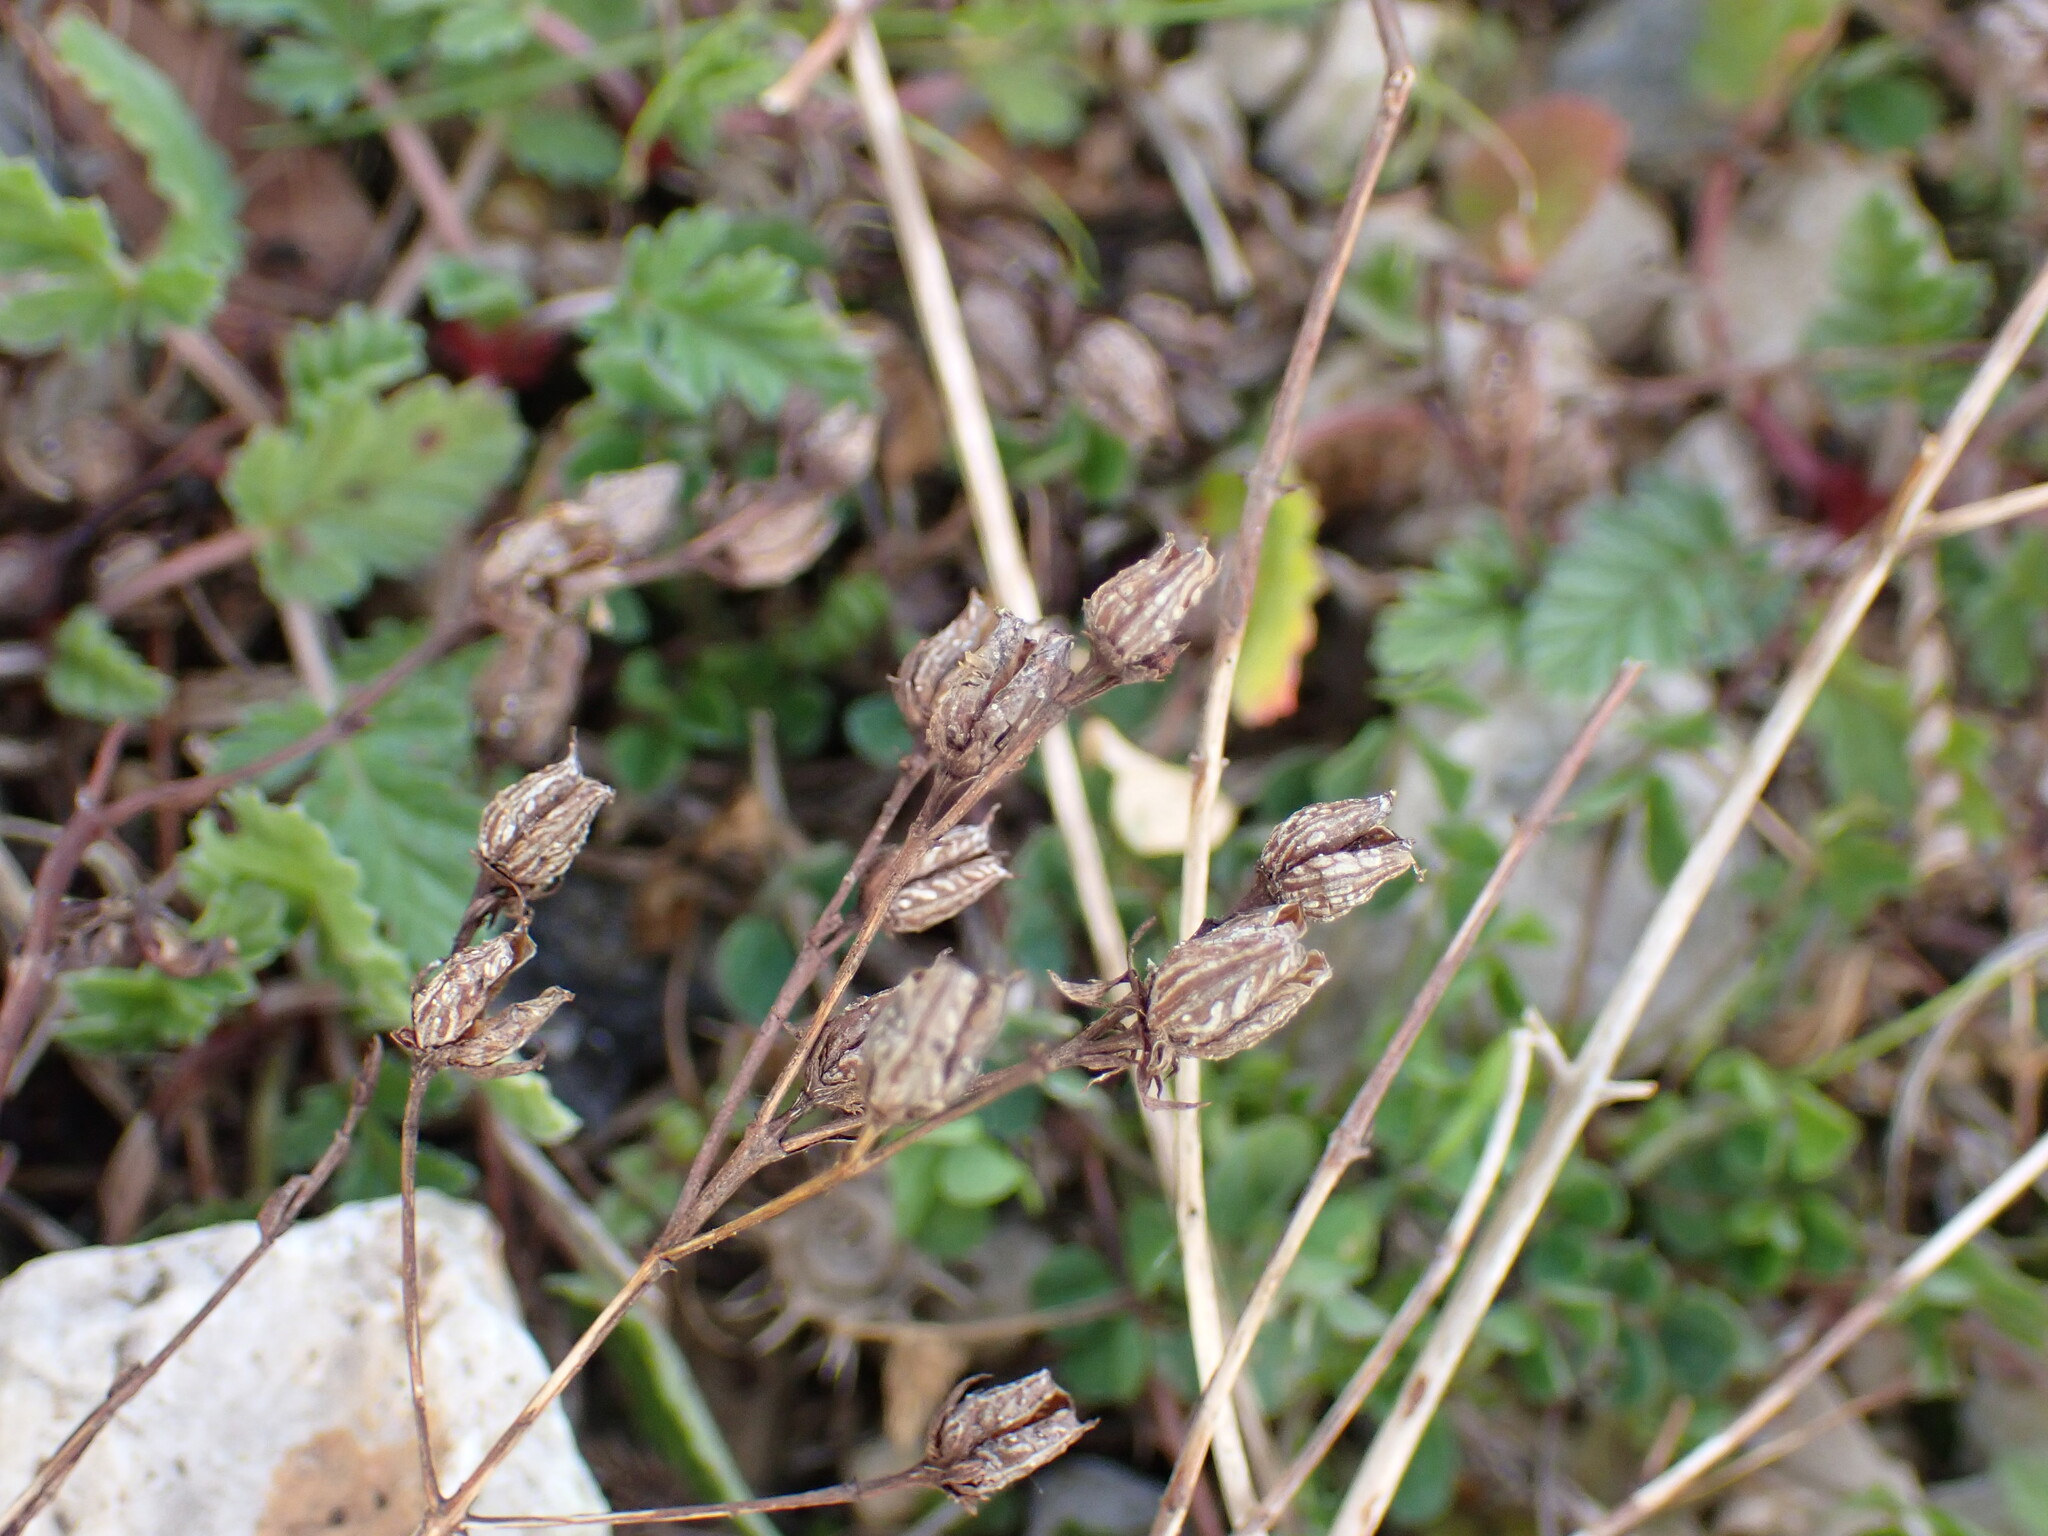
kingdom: Plantae
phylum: Tracheophyta
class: Magnoliopsida
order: Malpighiales
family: Hypericaceae
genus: Hypericum
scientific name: Hypericum perforatum
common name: Common st. johnswort
